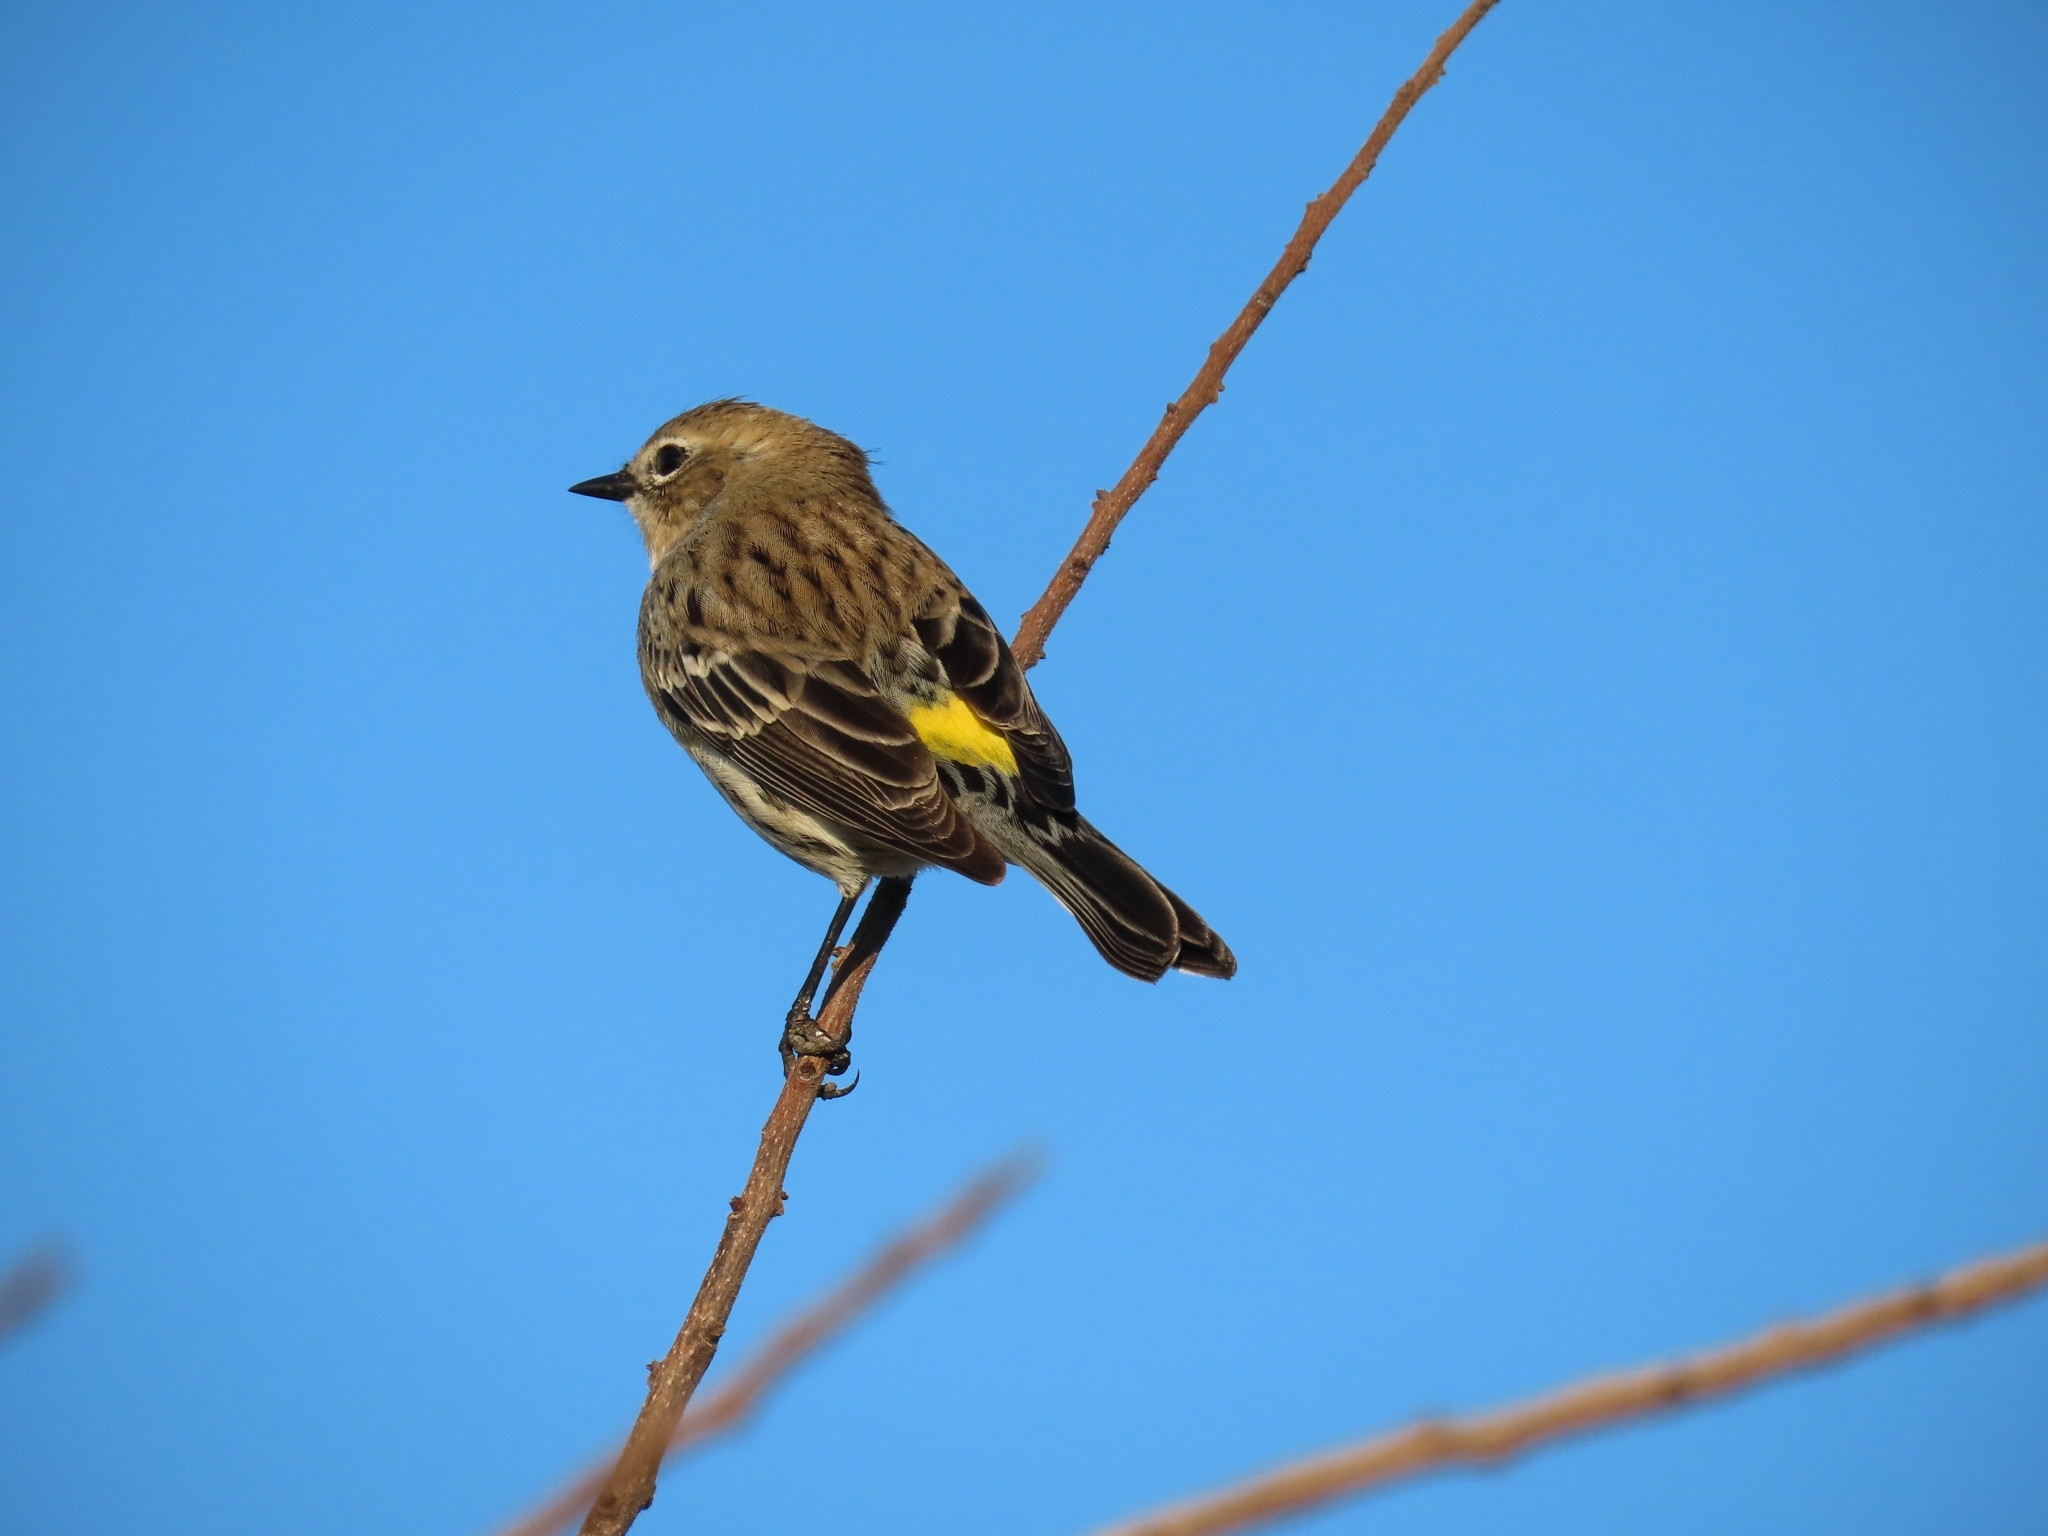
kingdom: Animalia
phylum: Chordata
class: Aves
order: Passeriformes
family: Parulidae
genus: Setophaga
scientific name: Setophaga coronata
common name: Myrtle warbler
